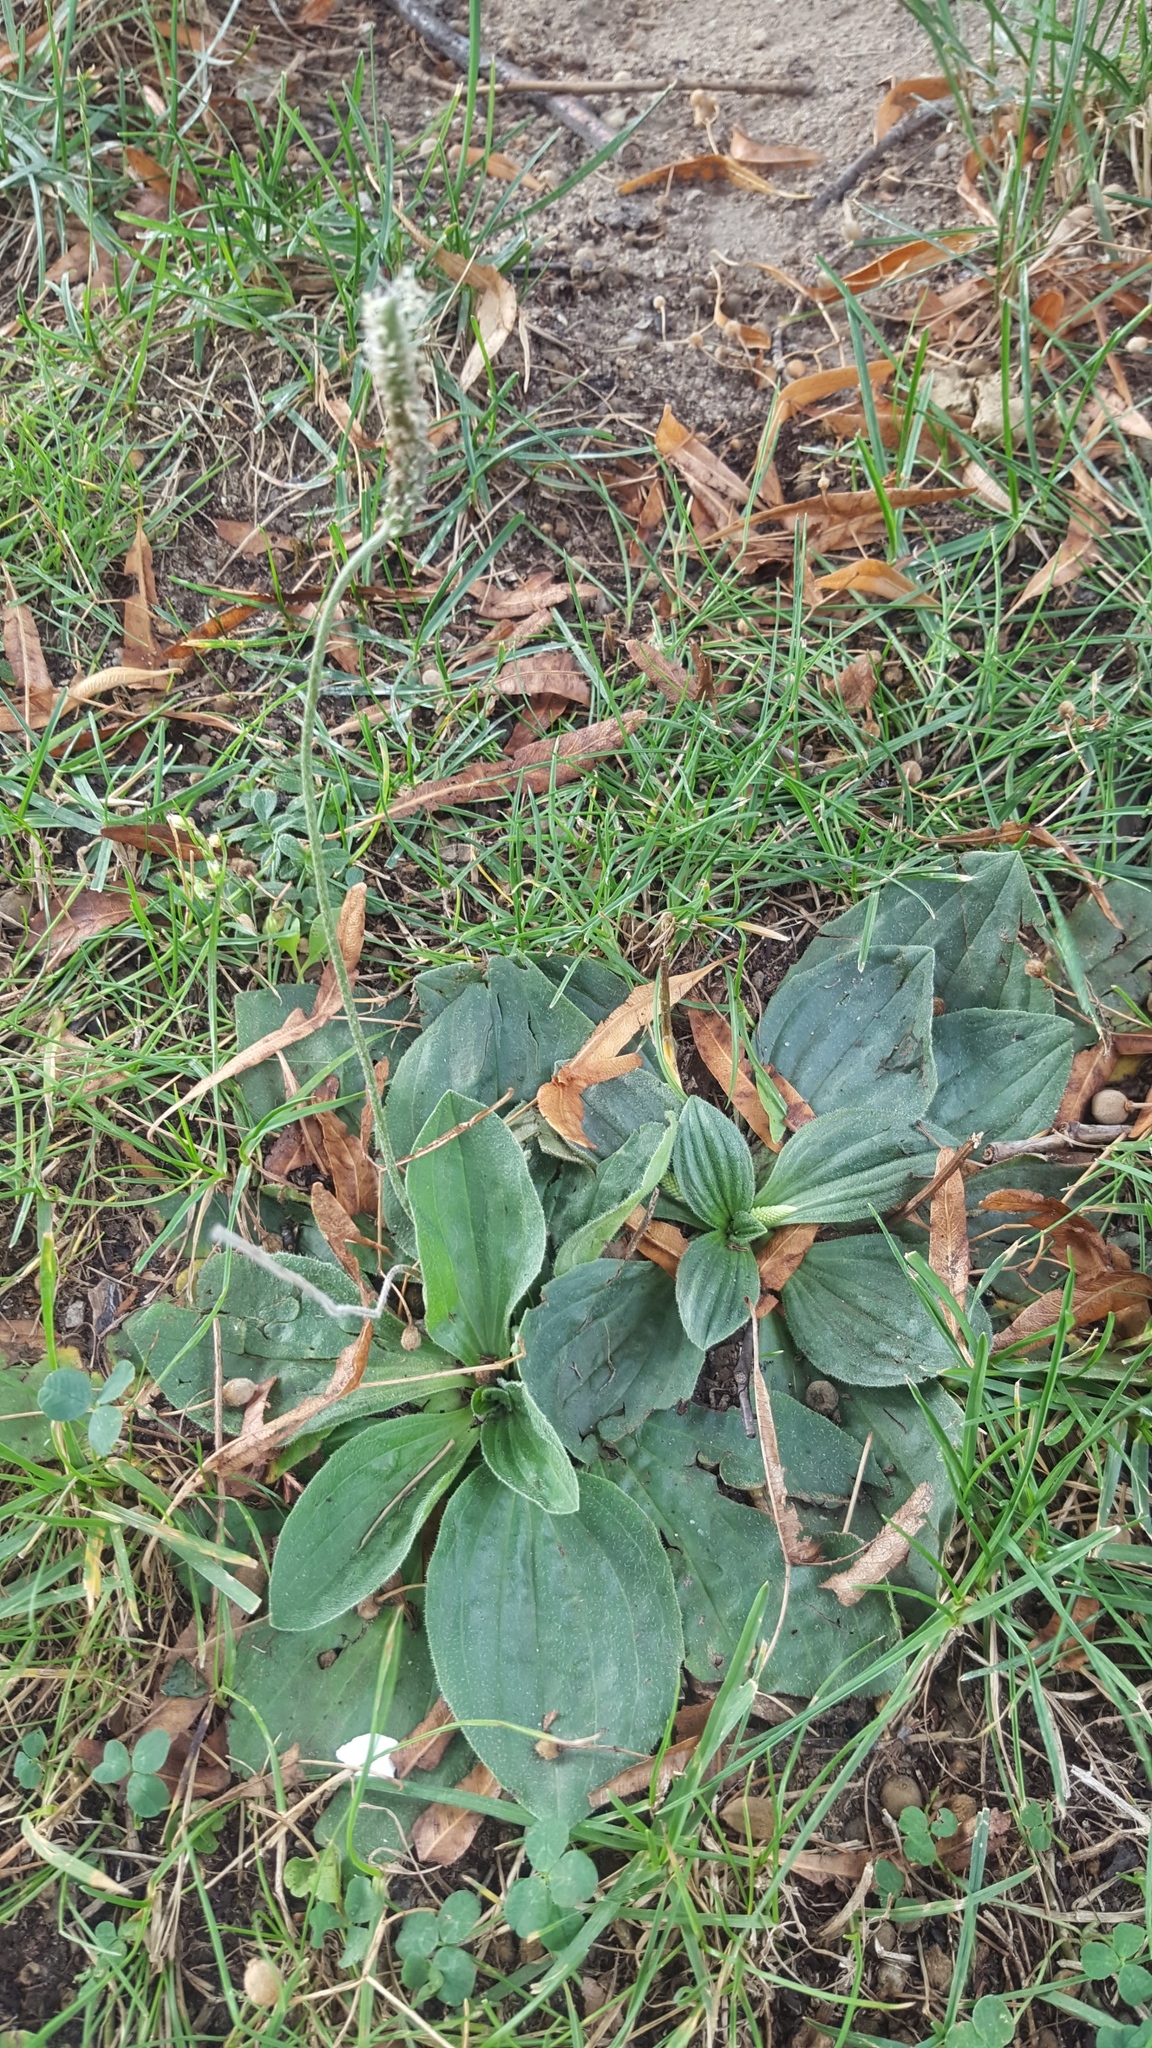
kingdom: Plantae
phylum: Tracheophyta
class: Magnoliopsida
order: Lamiales
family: Plantaginaceae
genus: Plantago
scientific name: Plantago media
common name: Hoary plantain
